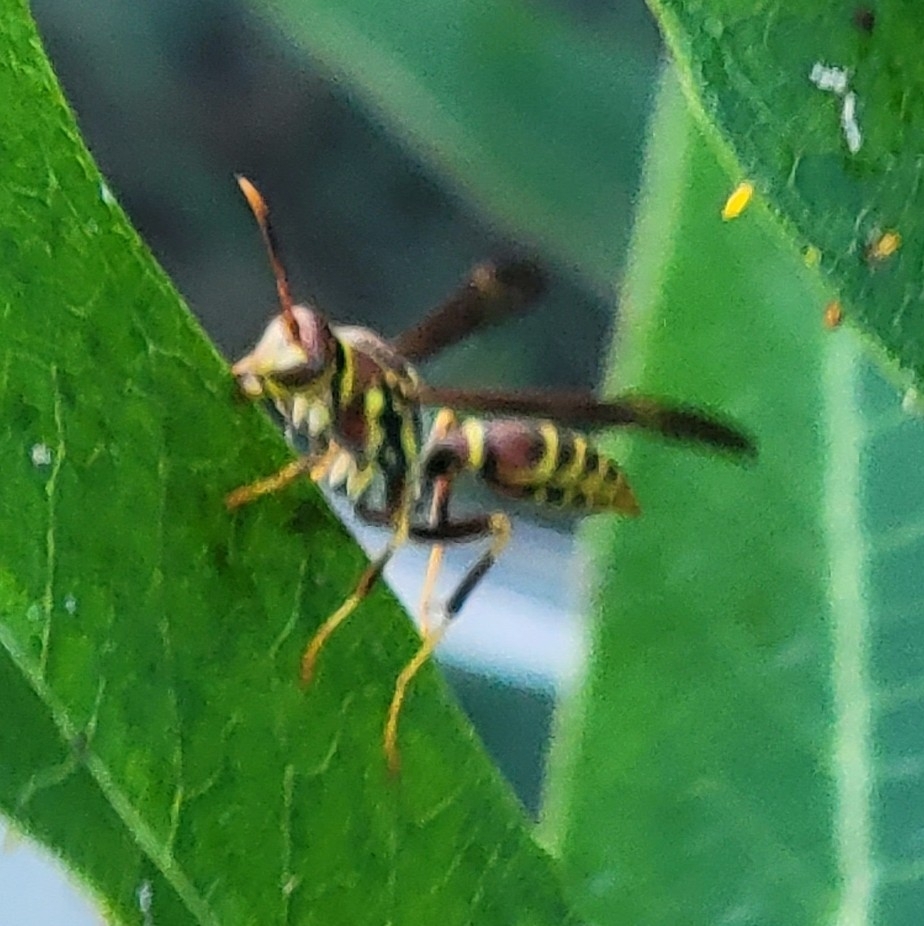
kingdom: Animalia
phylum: Arthropoda
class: Insecta
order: Hymenoptera
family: Eumenidae
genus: Polistes
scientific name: Polistes exclamans
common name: Paper wasp
